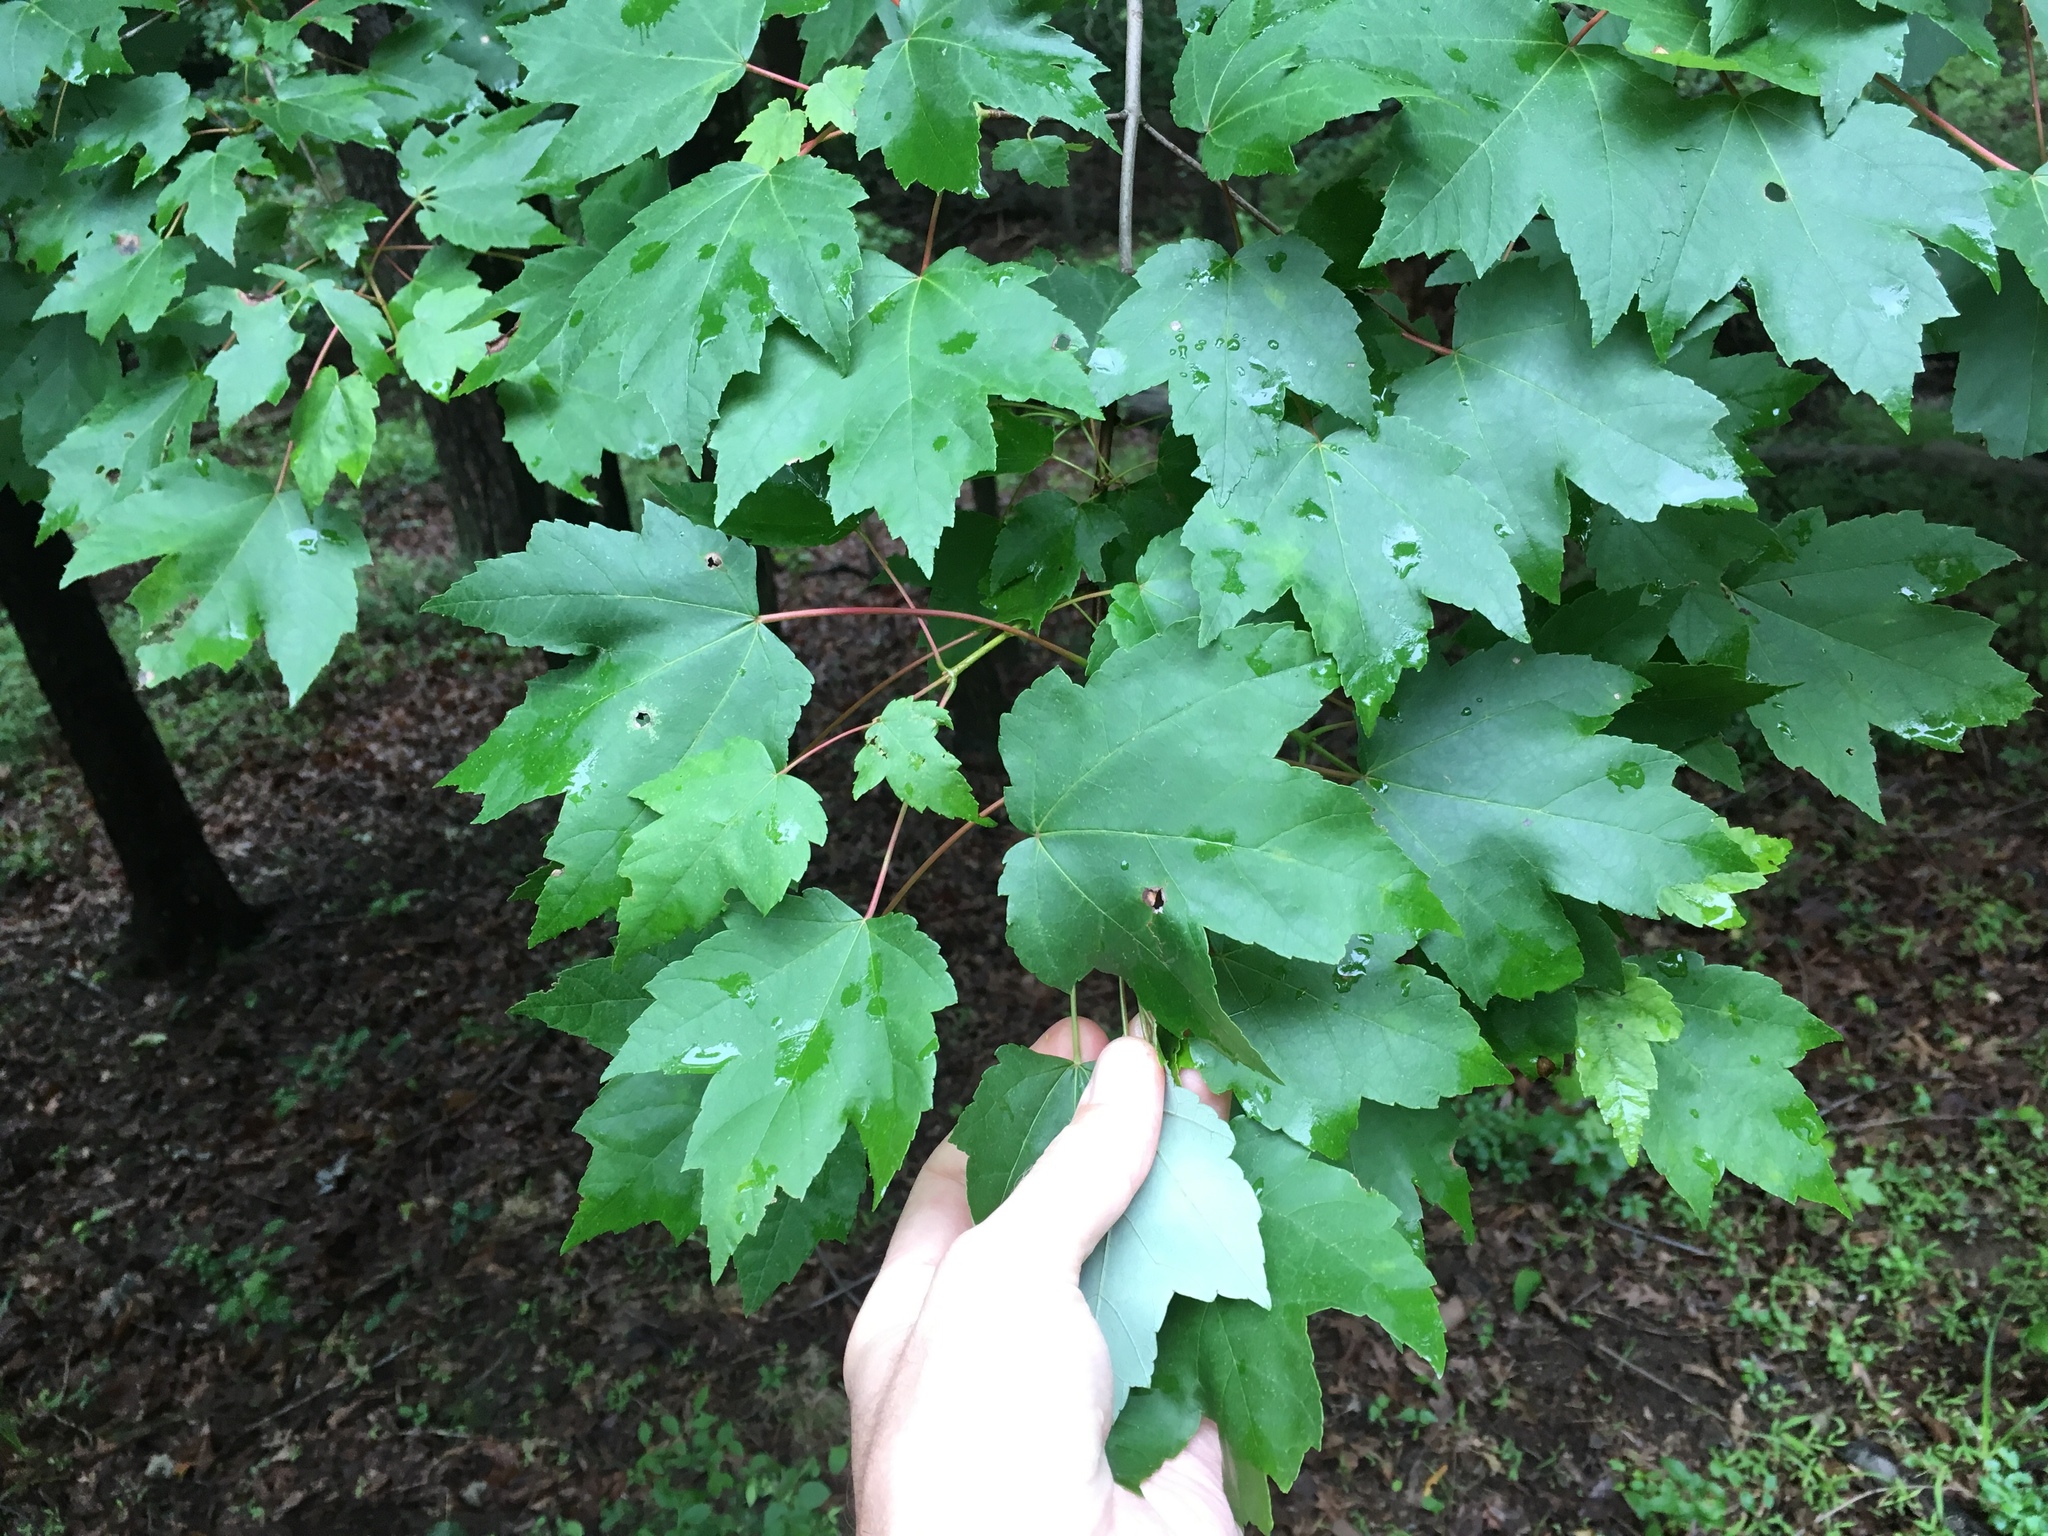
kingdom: Plantae
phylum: Tracheophyta
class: Magnoliopsida
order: Sapindales
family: Sapindaceae
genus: Acer
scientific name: Acer rubrum
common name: Red maple
